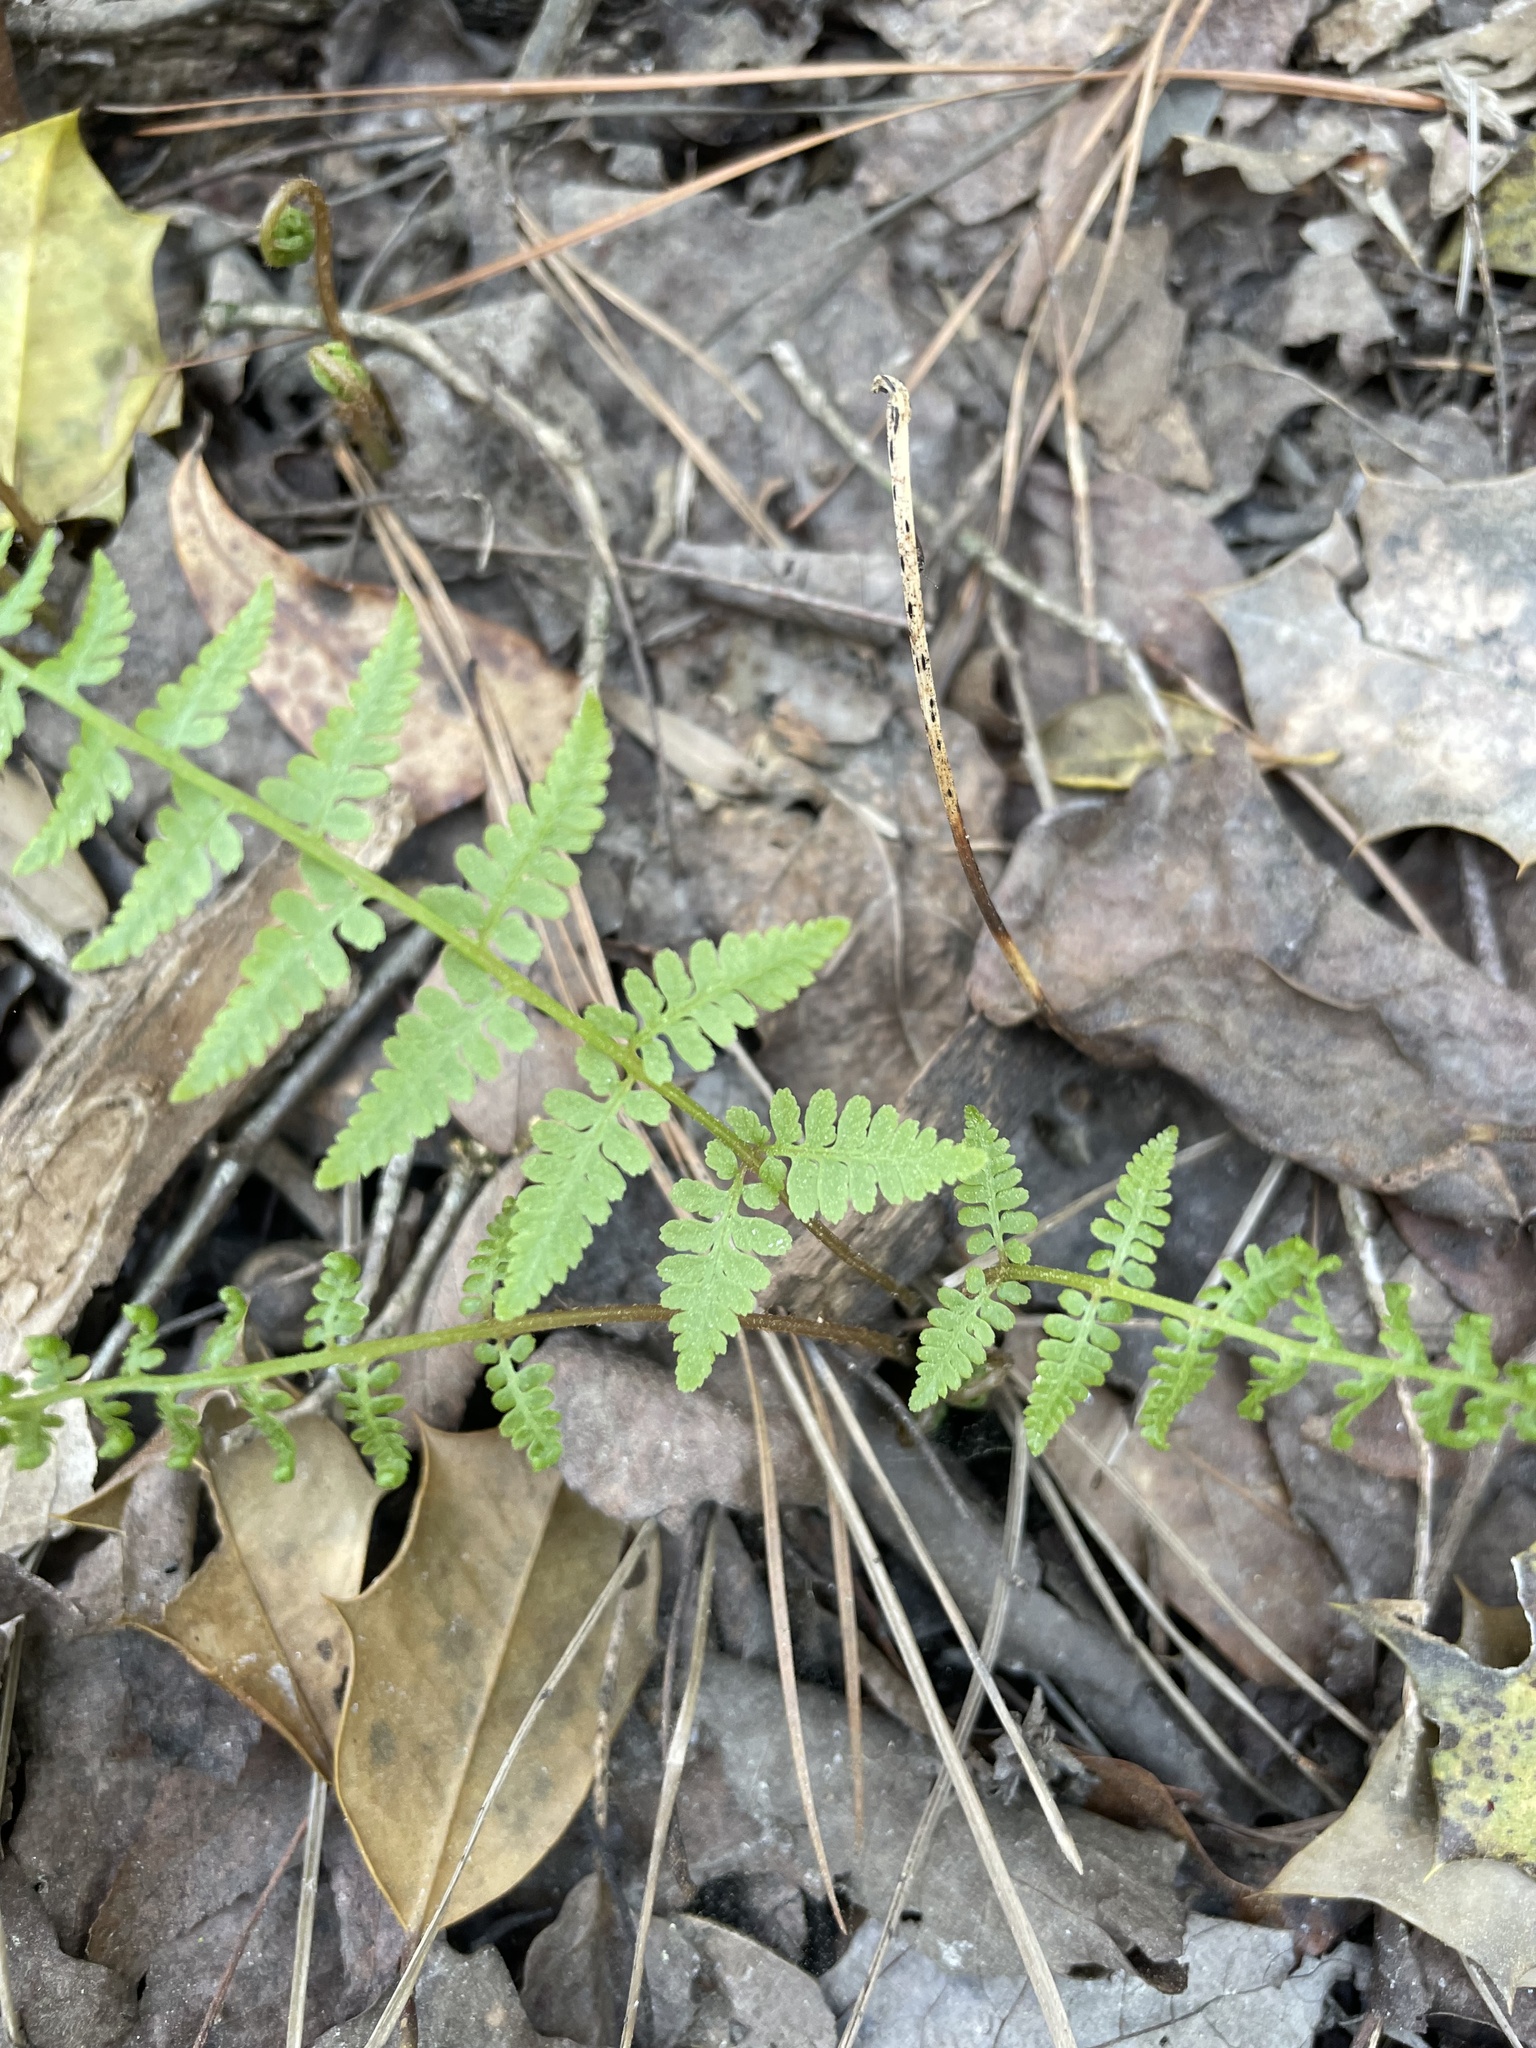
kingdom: Plantae
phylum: Tracheophyta
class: Polypodiopsida
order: Polypodiales
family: Athyriaceae
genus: Athyrium
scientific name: Athyrium asplenioides
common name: Southern lady fern
